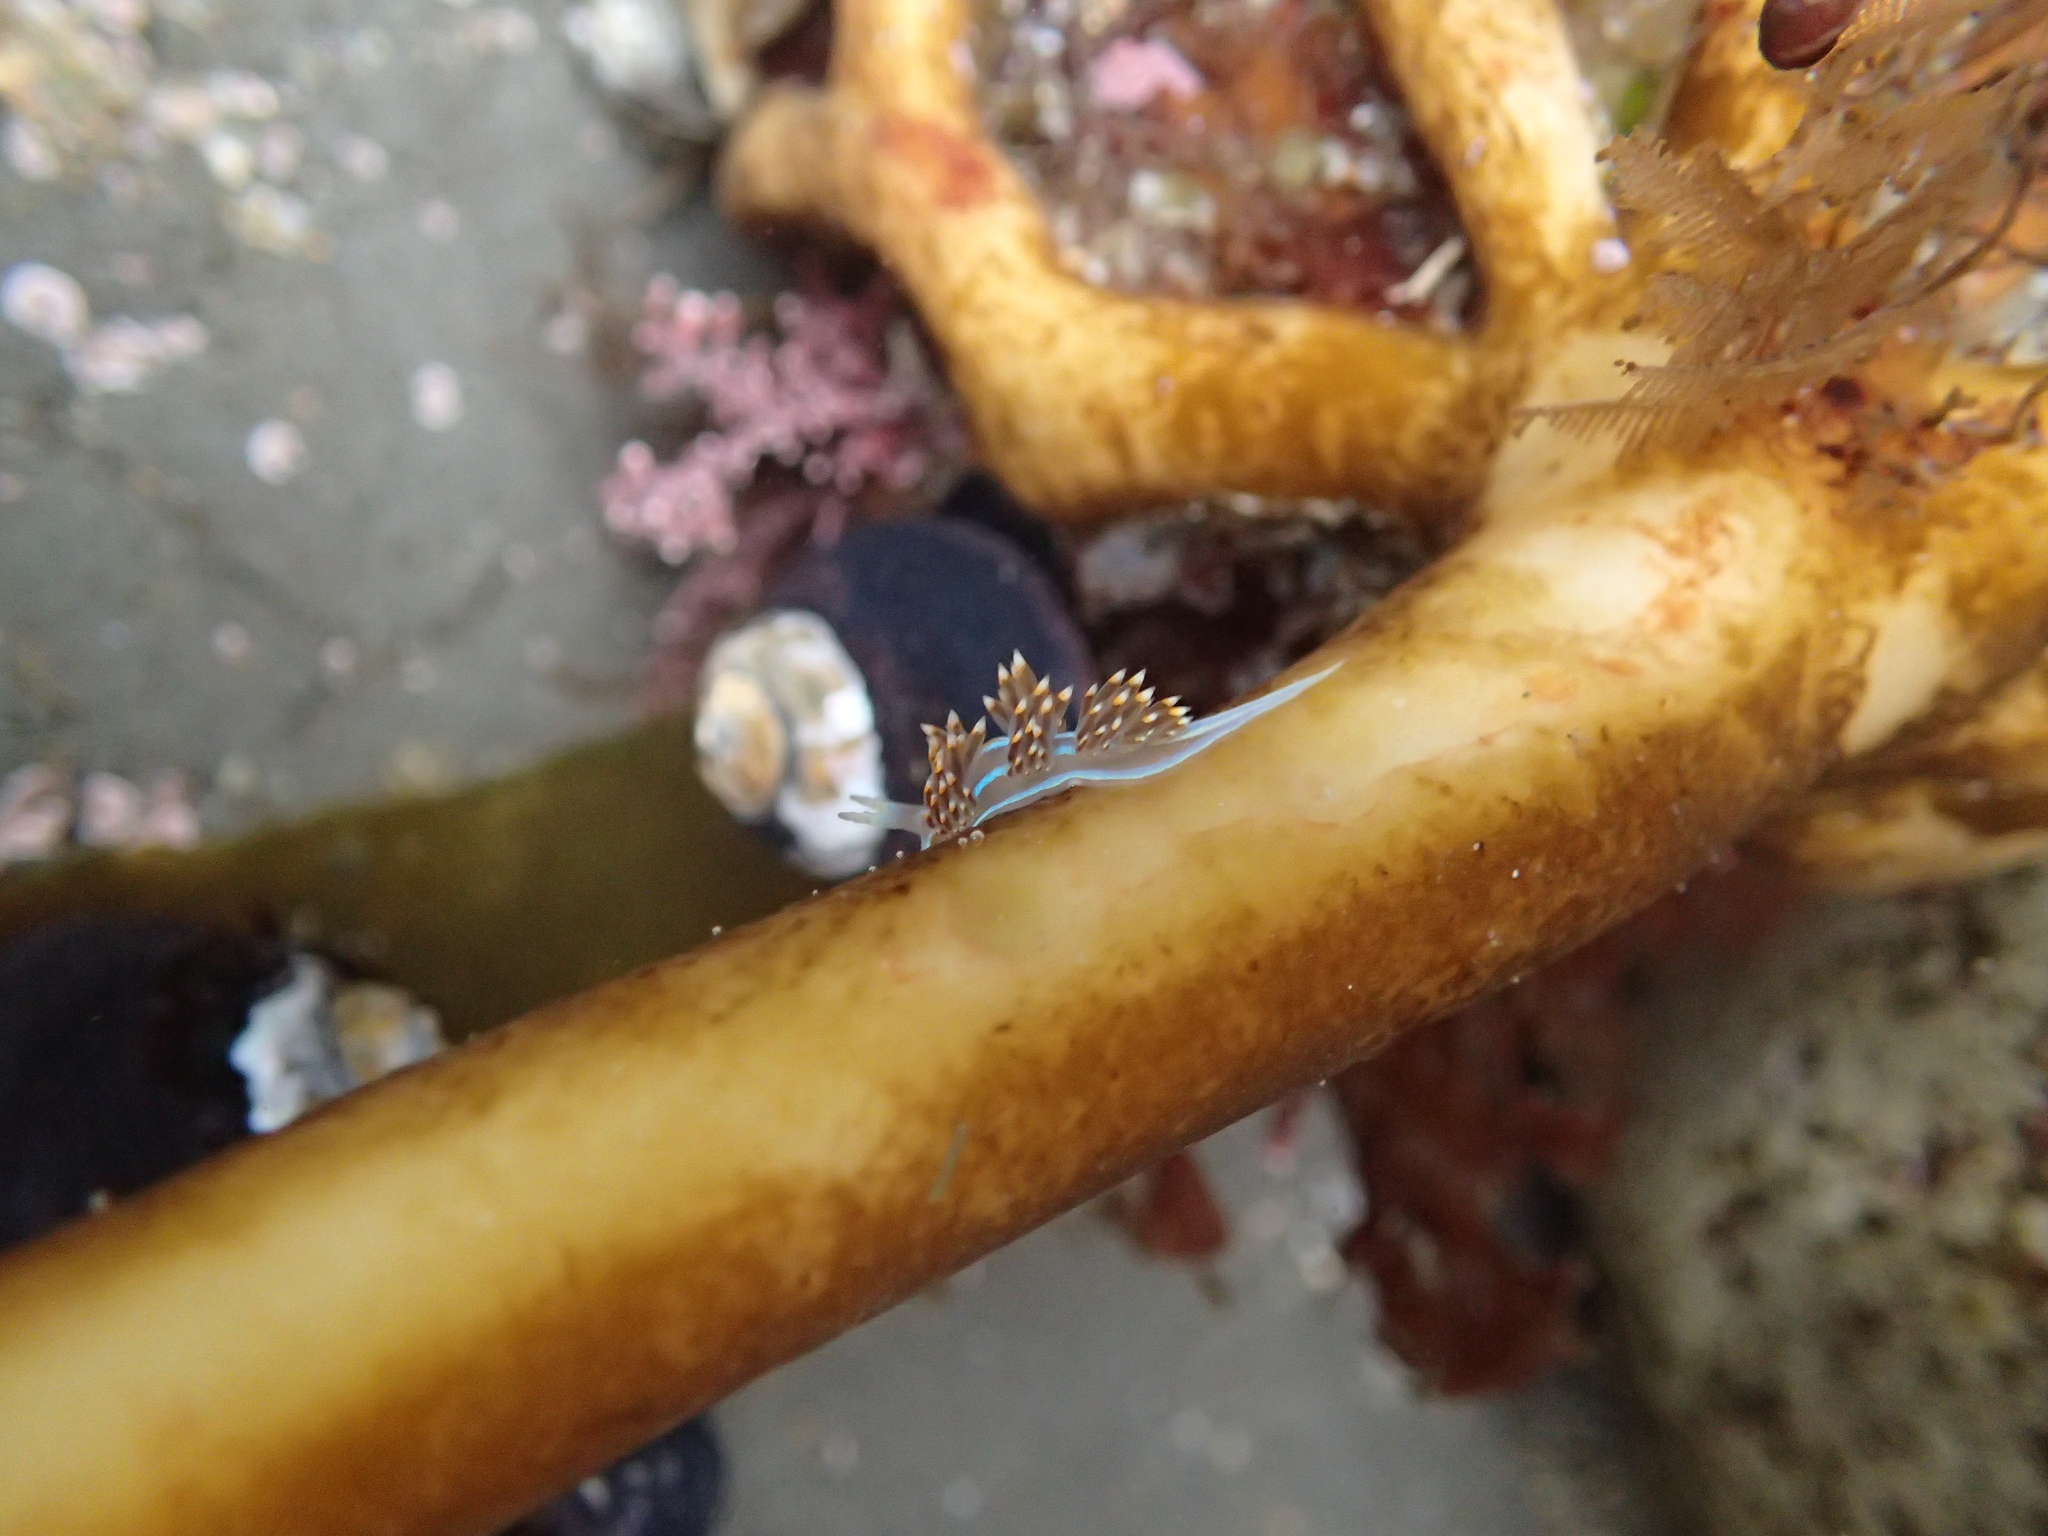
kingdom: Animalia
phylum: Mollusca
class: Gastropoda
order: Nudibranchia
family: Myrrhinidae
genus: Hermissenda
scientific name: Hermissenda opalescens
